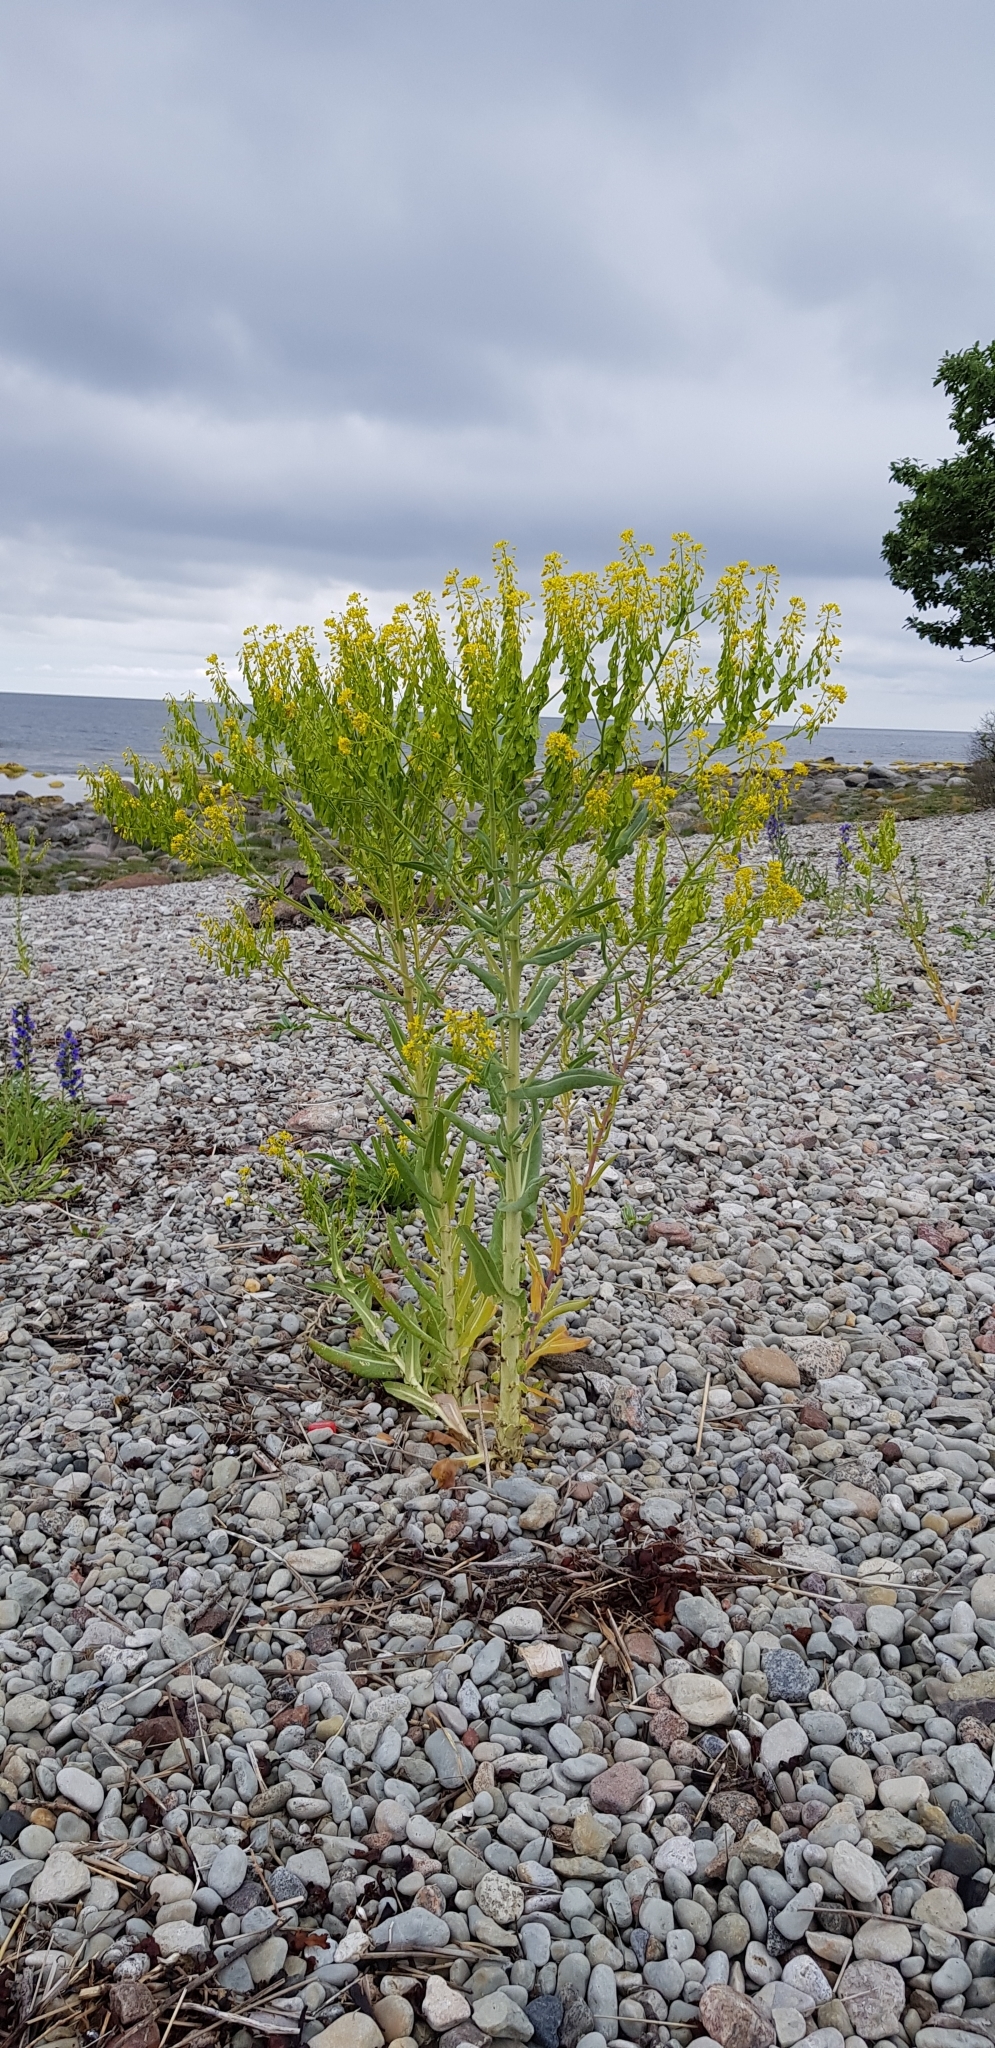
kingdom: Plantae
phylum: Tracheophyta
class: Magnoliopsida
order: Brassicales
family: Brassicaceae
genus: Isatis
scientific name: Isatis tinctoria
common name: Woad
